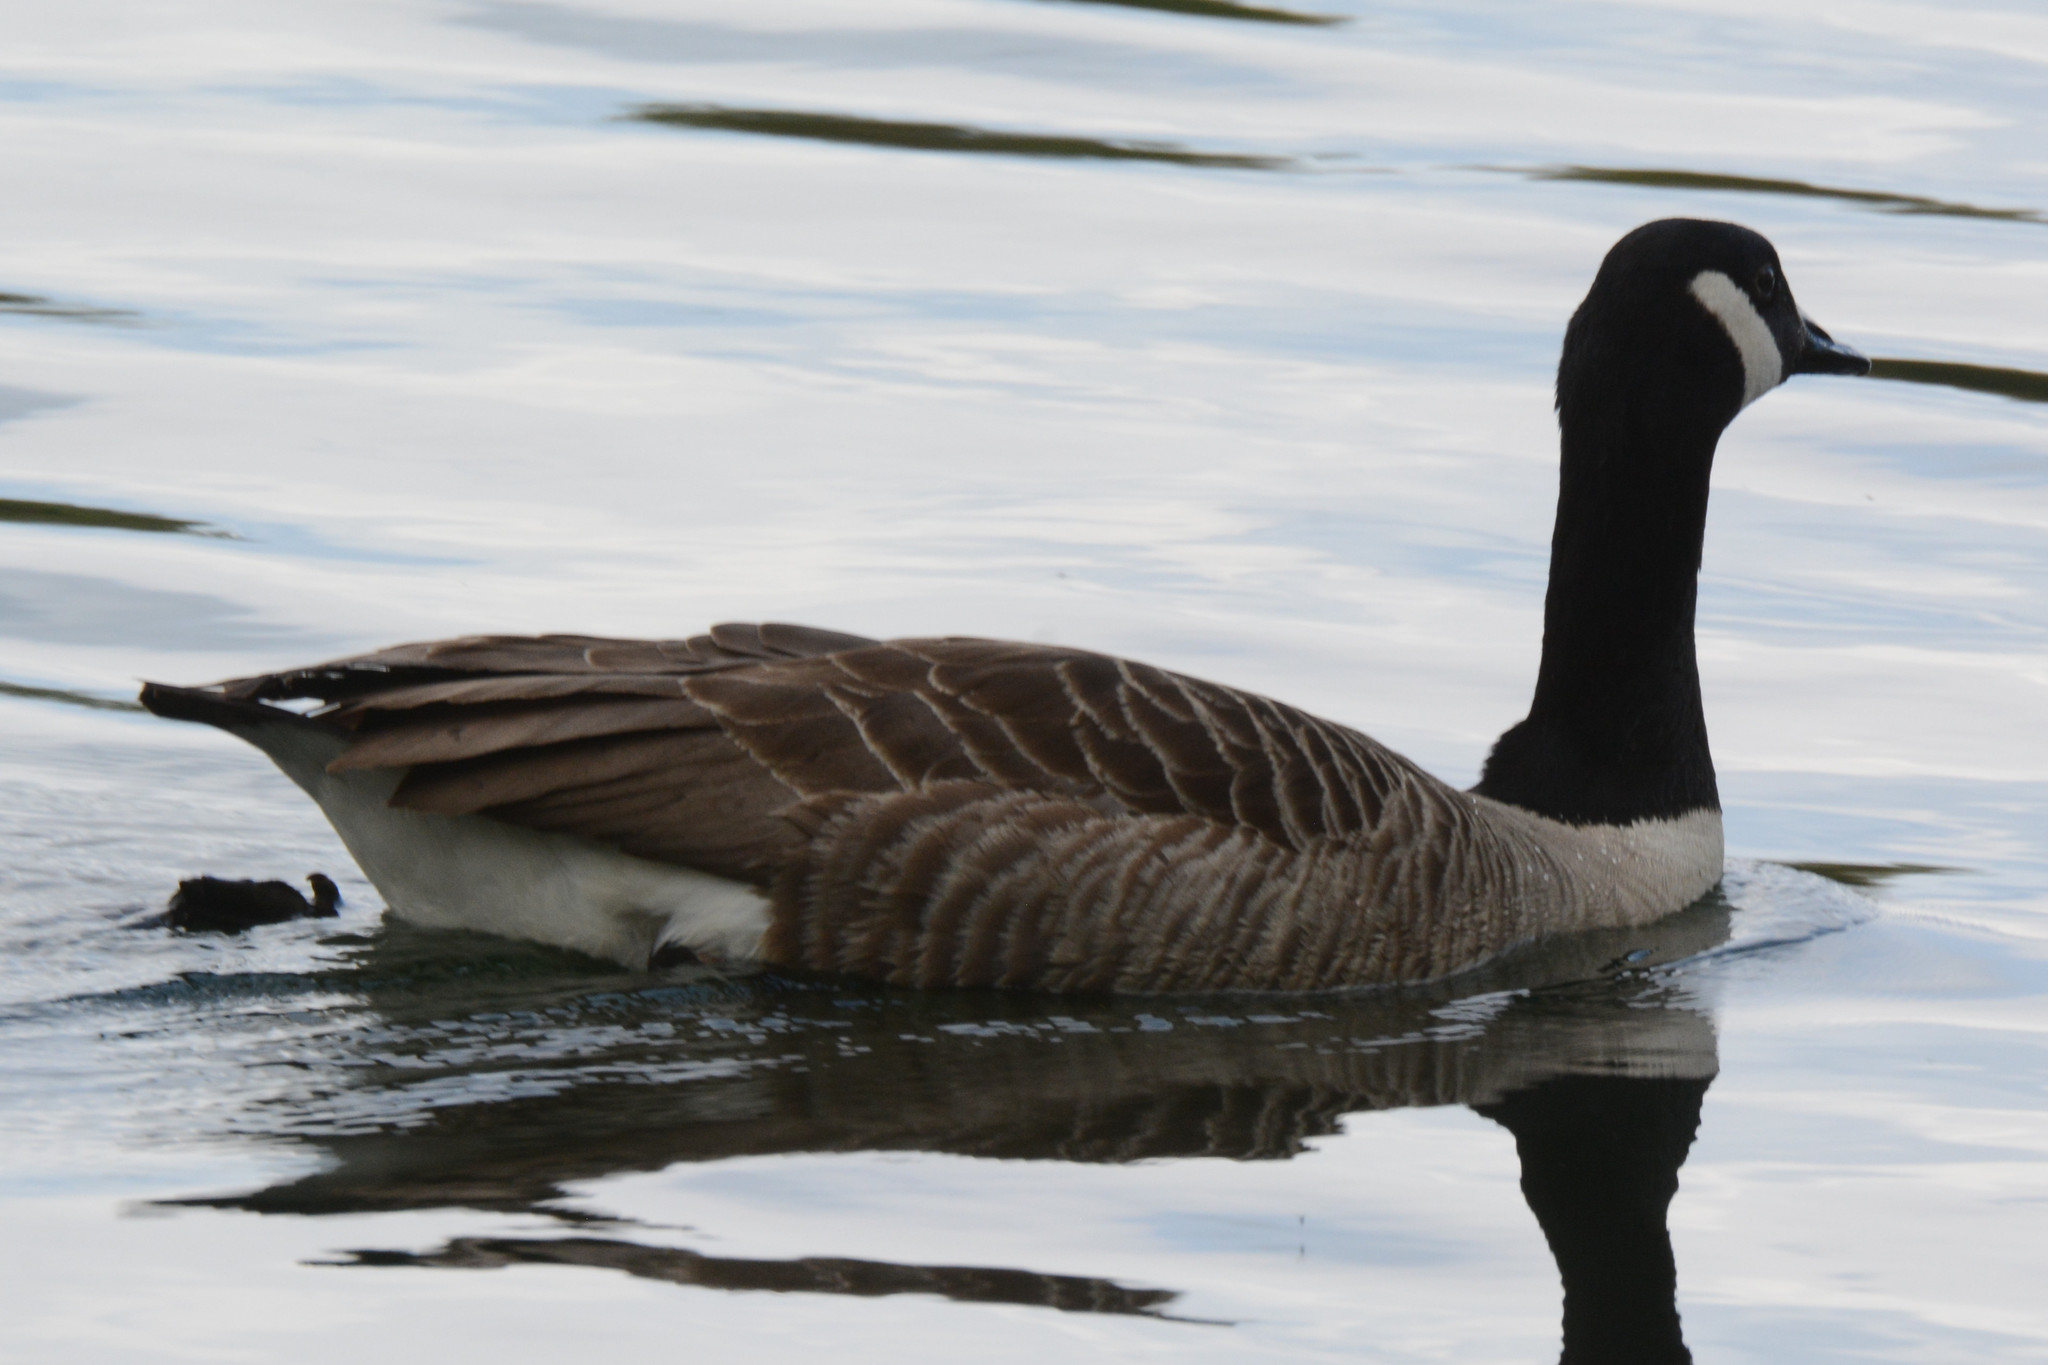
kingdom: Animalia
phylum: Chordata
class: Aves
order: Anseriformes
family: Anatidae
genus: Branta
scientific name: Branta canadensis
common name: Canada goose
